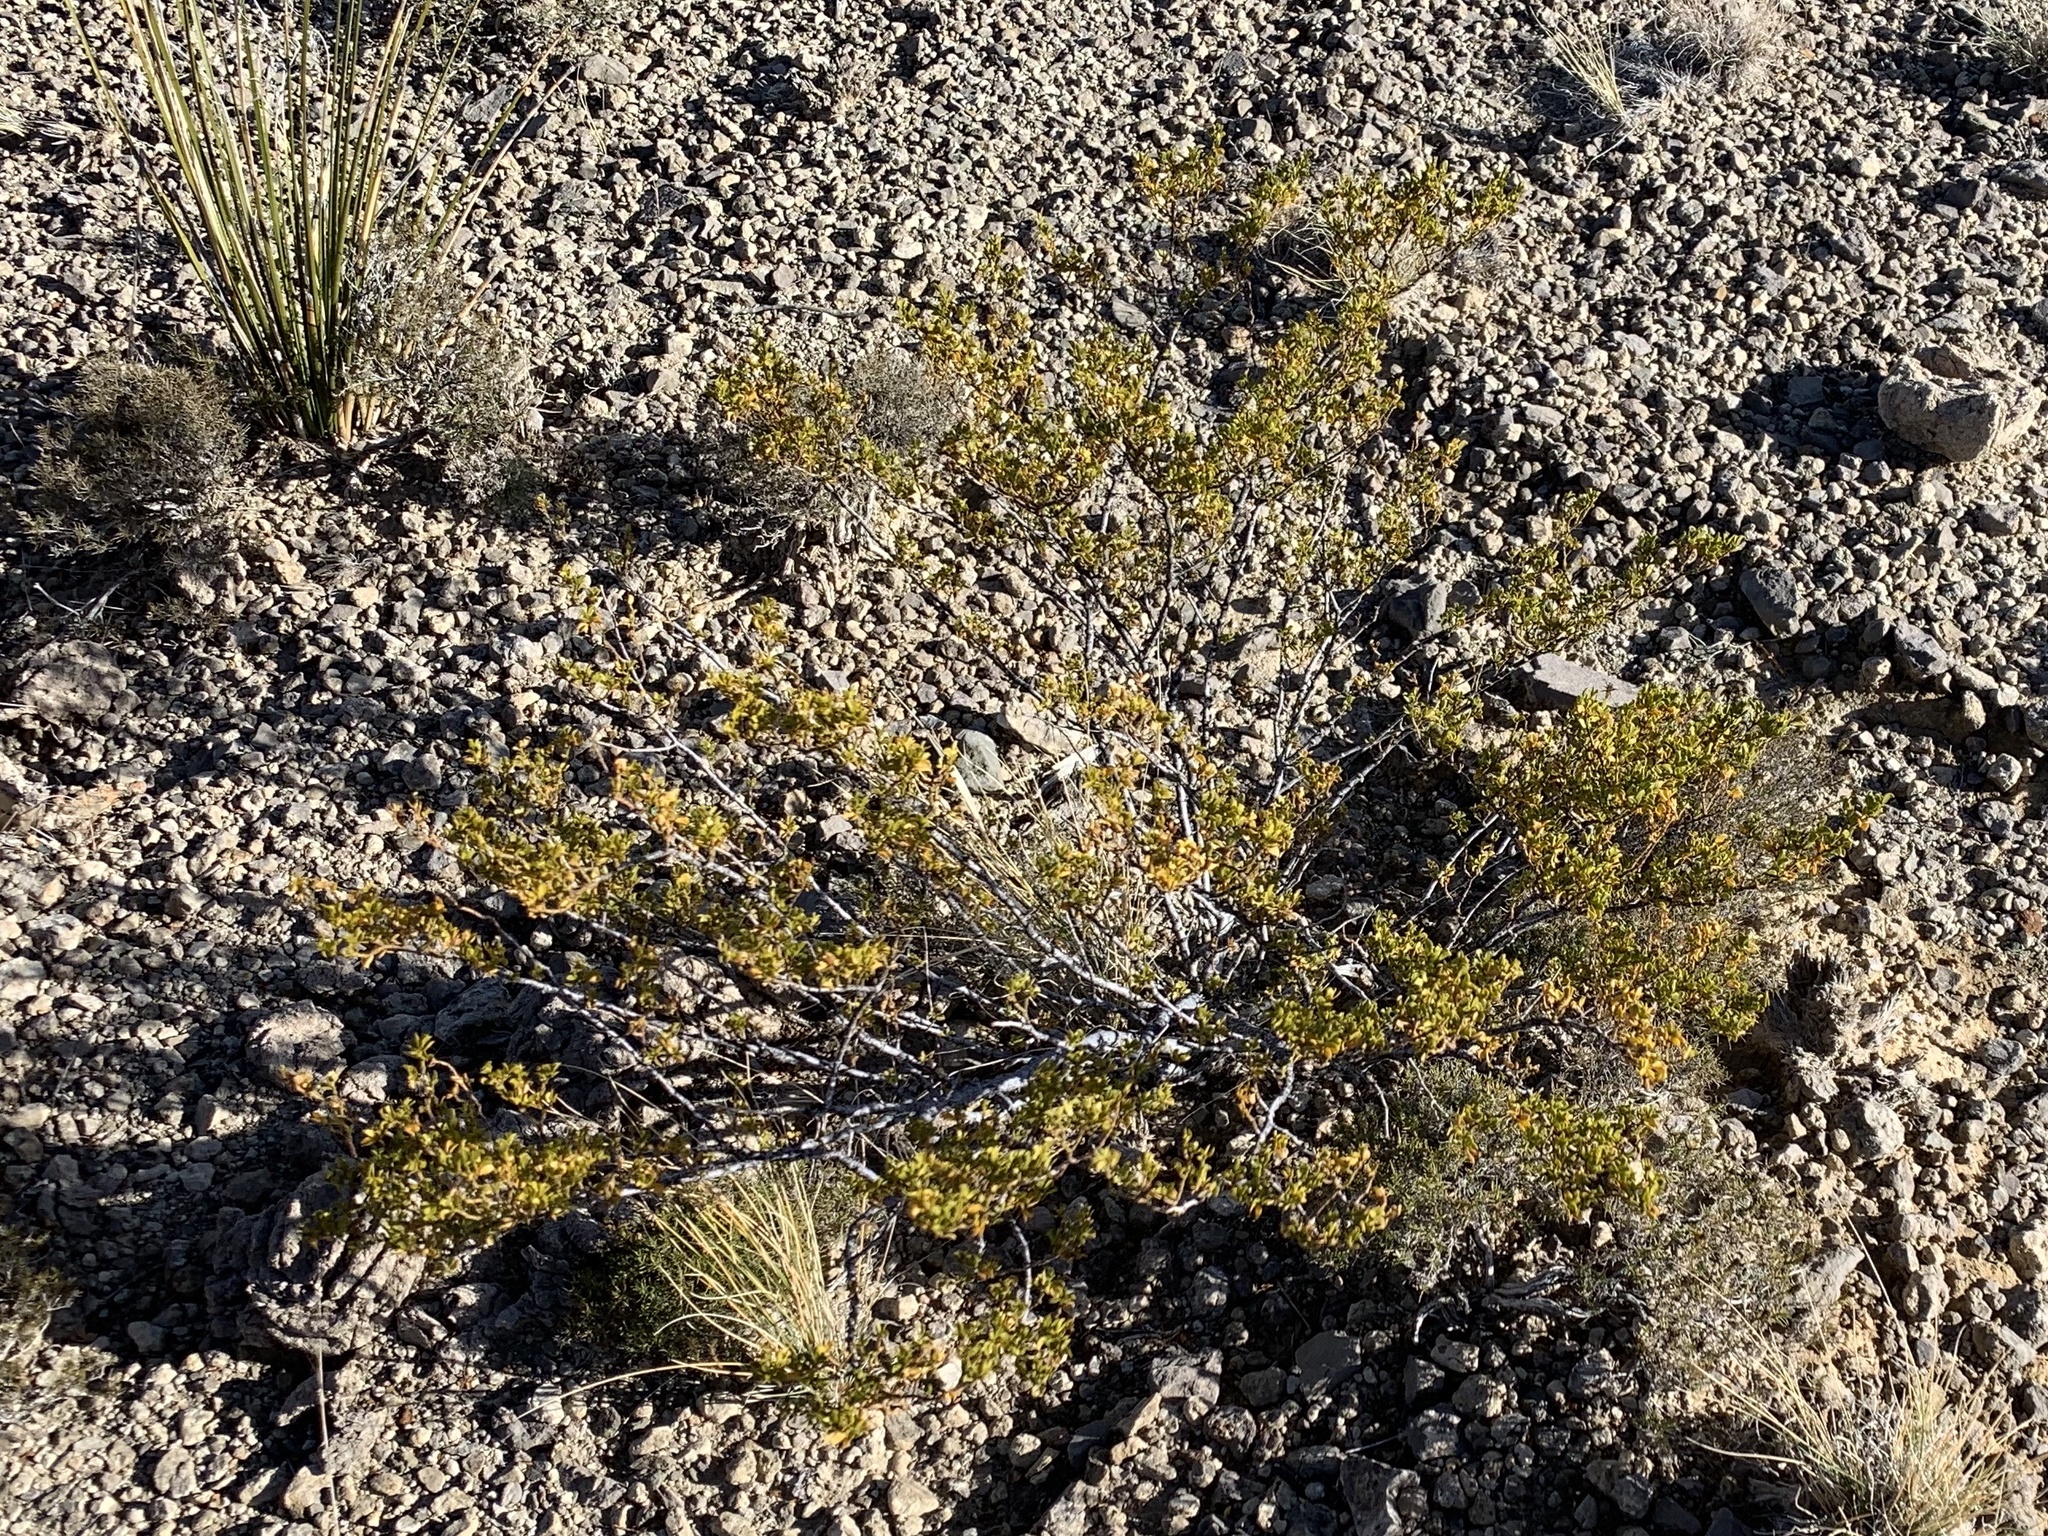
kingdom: Plantae
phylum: Tracheophyta
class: Magnoliopsida
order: Zygophyllales
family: Zygophyllaceae
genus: Larrea
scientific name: Larrea tridentata
